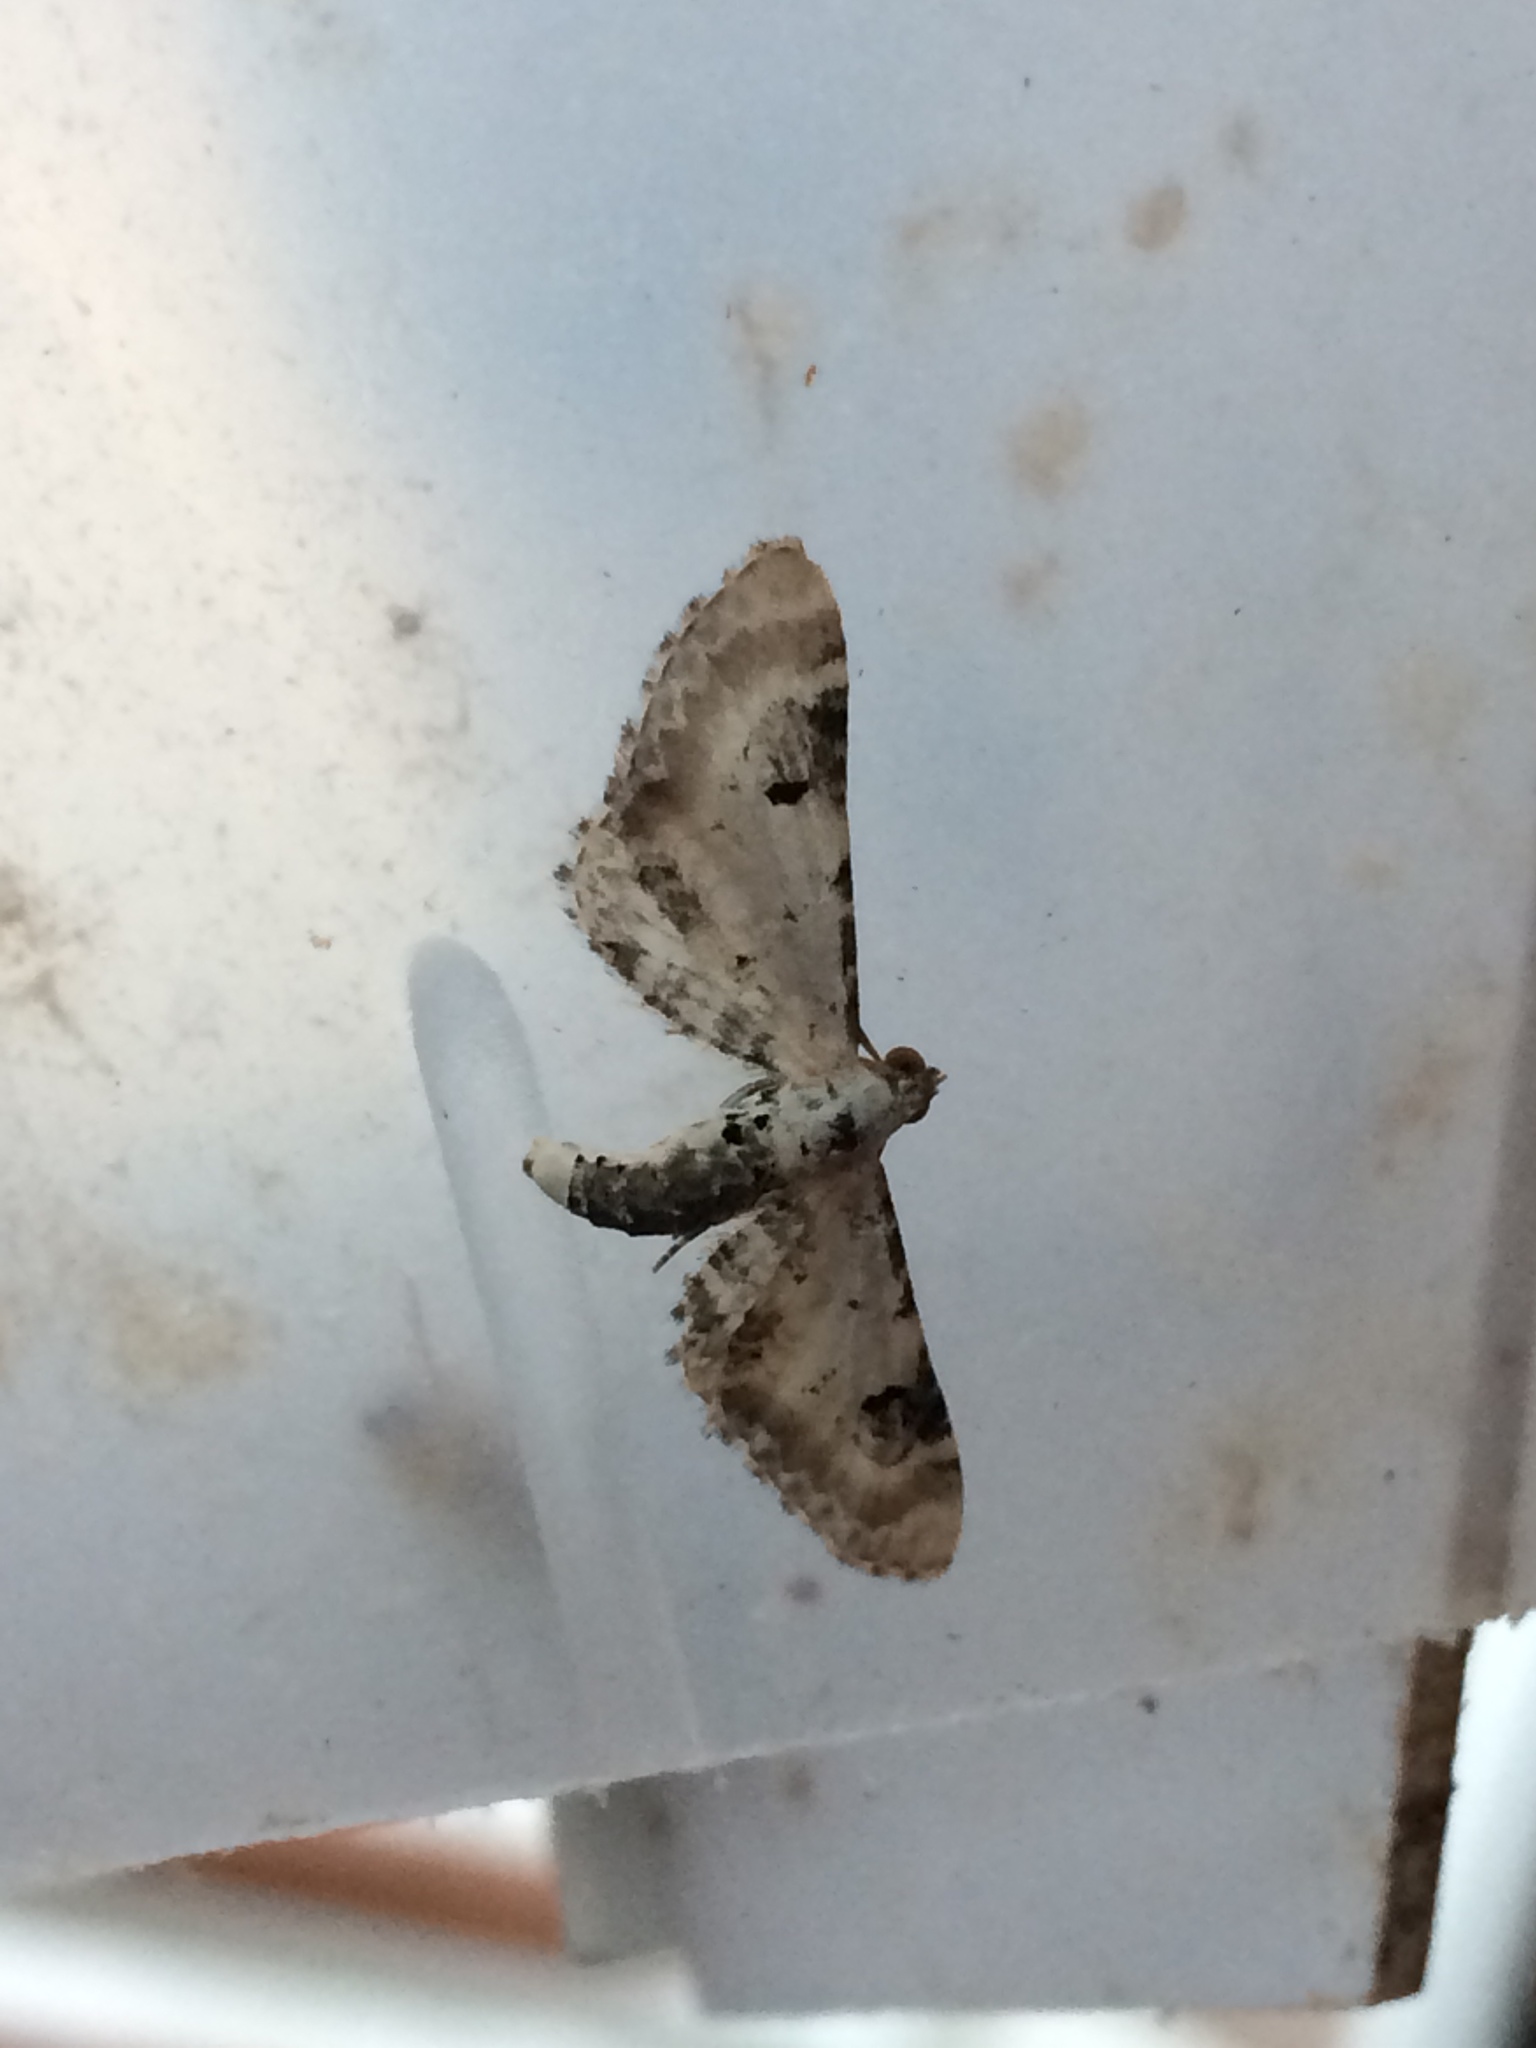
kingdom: Animalia
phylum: Arthropoda
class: Insecta
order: Lepidoptera
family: Geometridae
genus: Eupithecia
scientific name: Eupithecia centaureata
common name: Lime-speck pug
